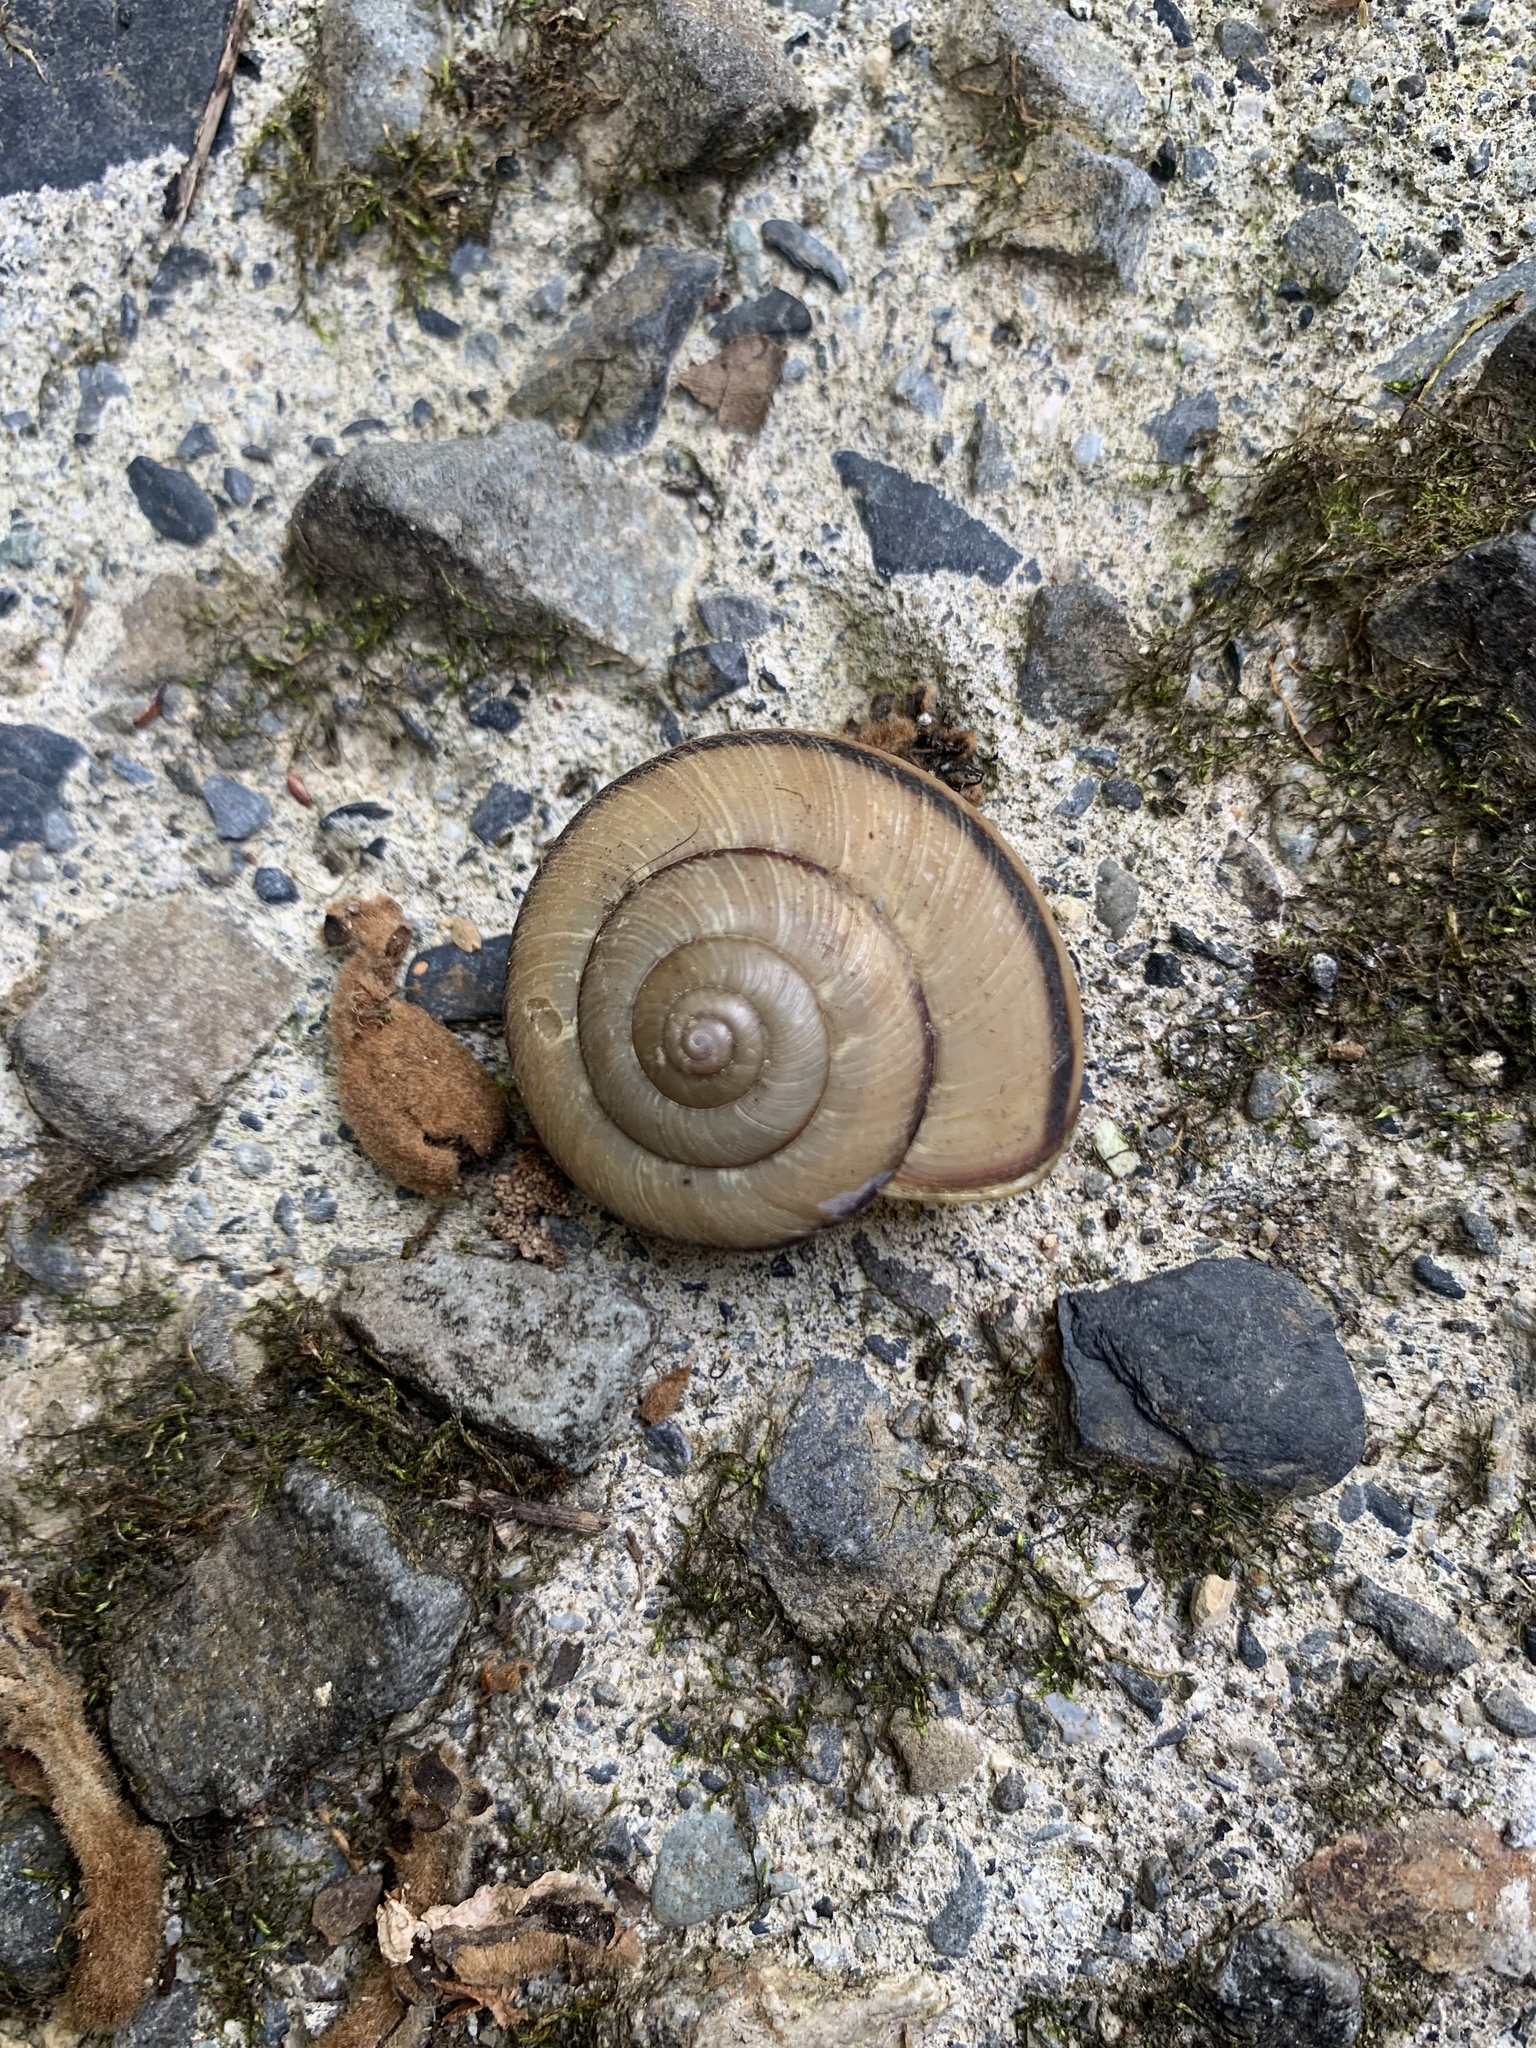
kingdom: Animalia
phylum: Mollusca
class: Gastropoda
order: Stylommatophora
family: Camaenidae
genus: Euhadra
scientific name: Euhadra peliomphala
